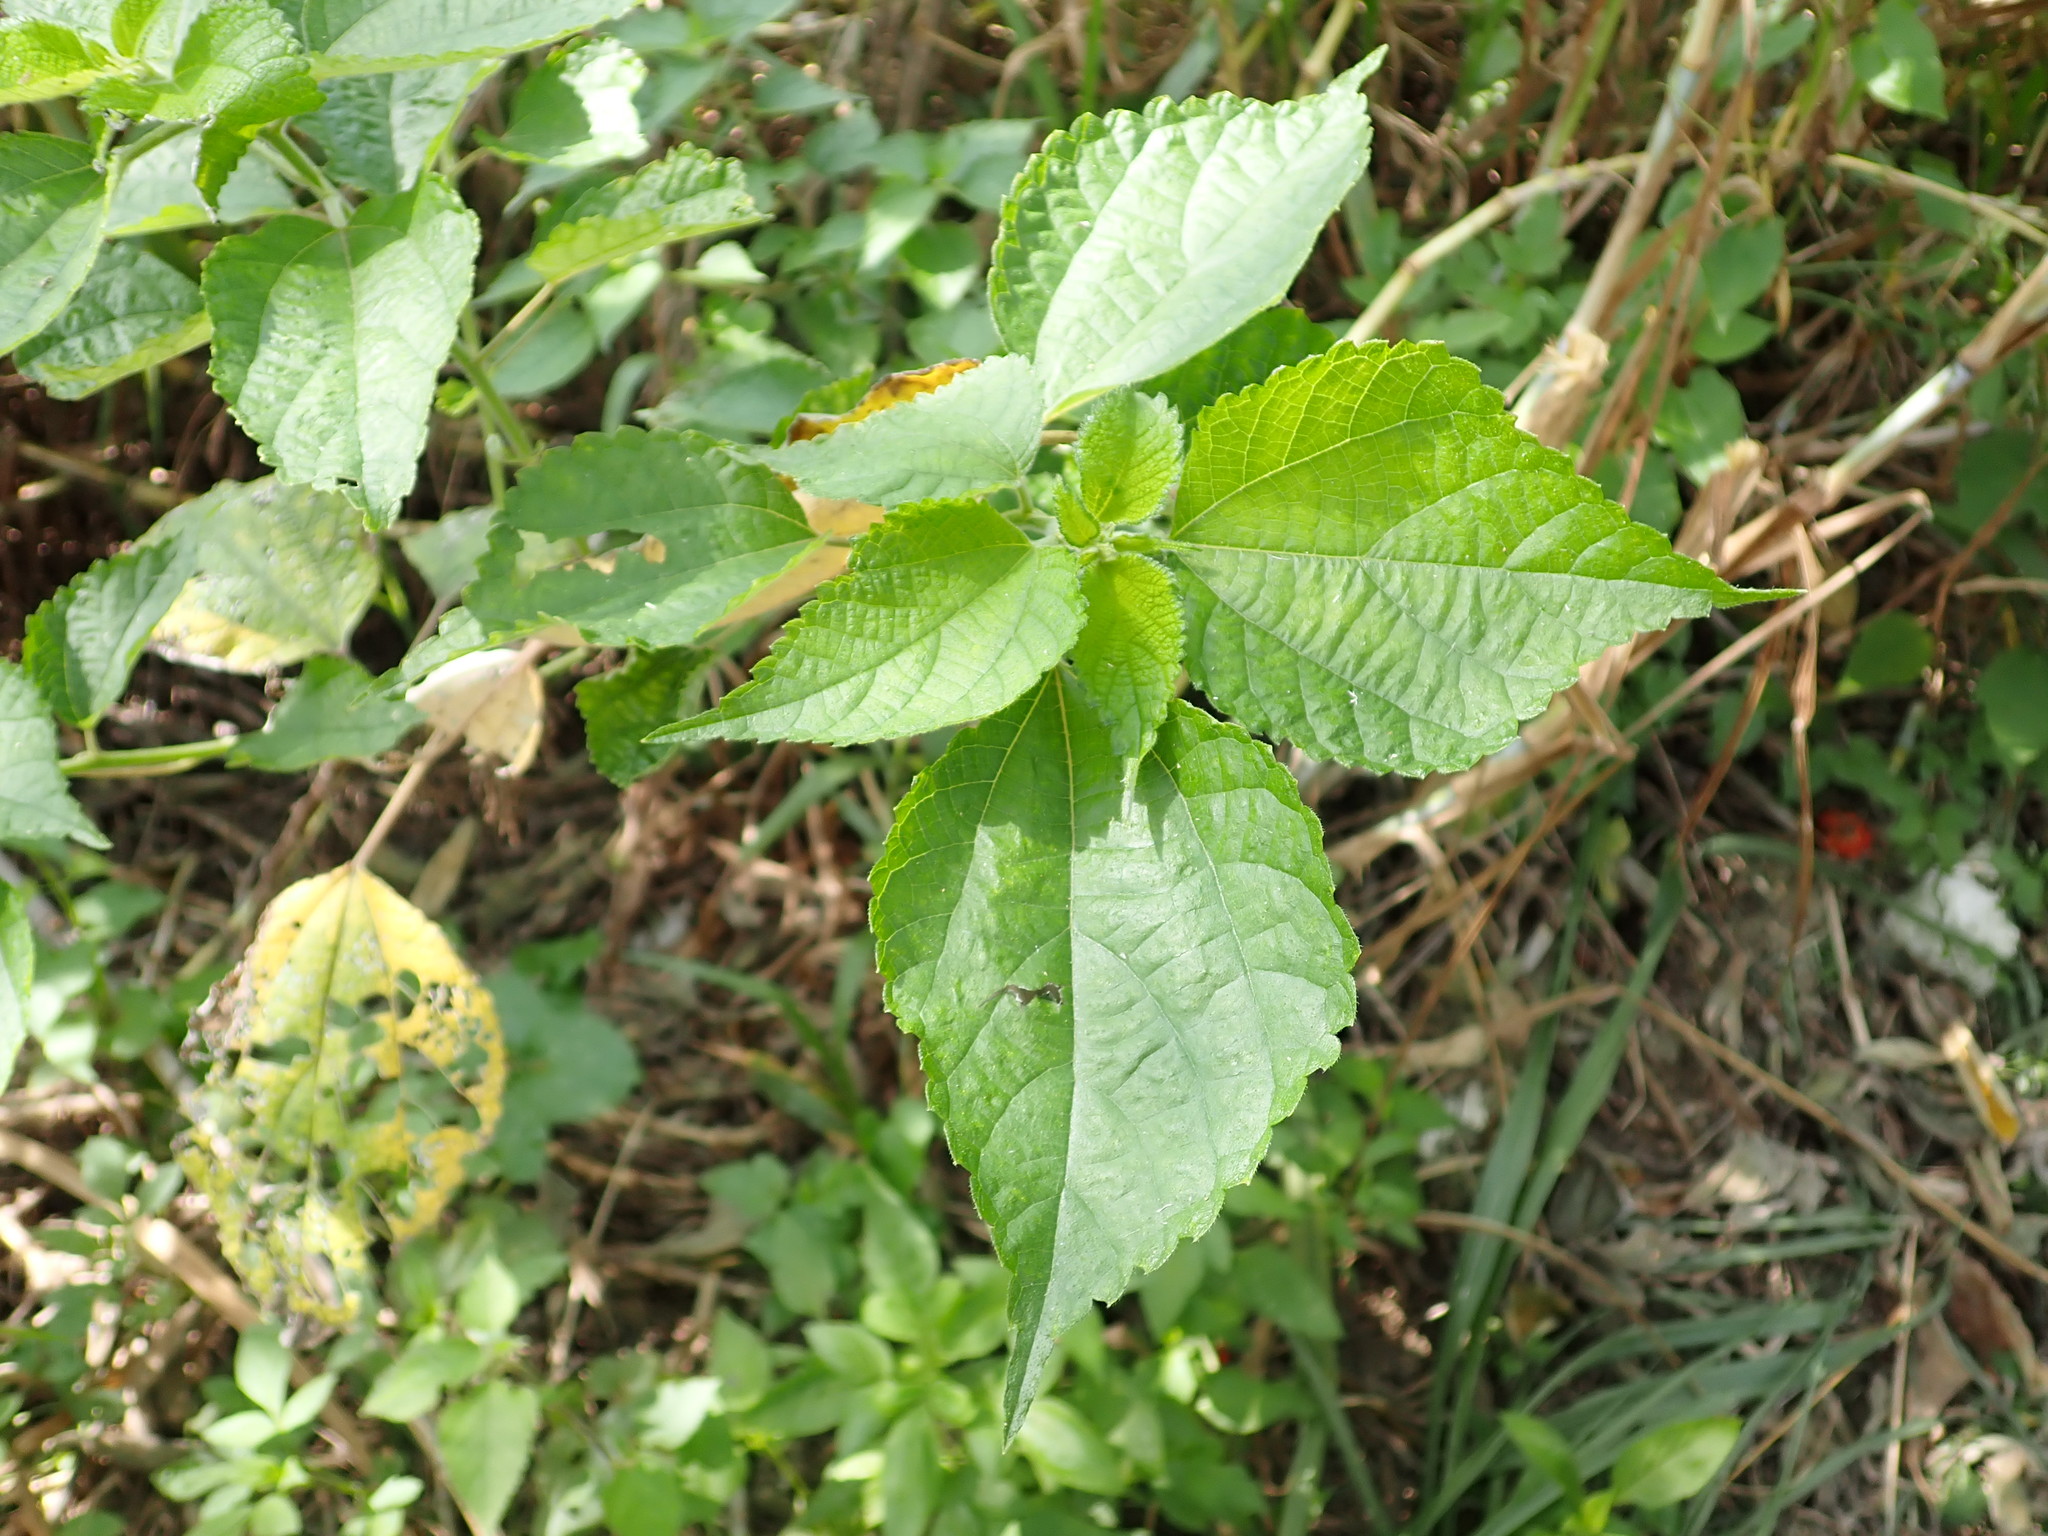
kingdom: Plantae
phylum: Tracheophyta
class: Magnoliopsida
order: Rosales
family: Urticaceae
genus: Boehmeria
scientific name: Boehmeria nivea
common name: Ramie chinese grass
